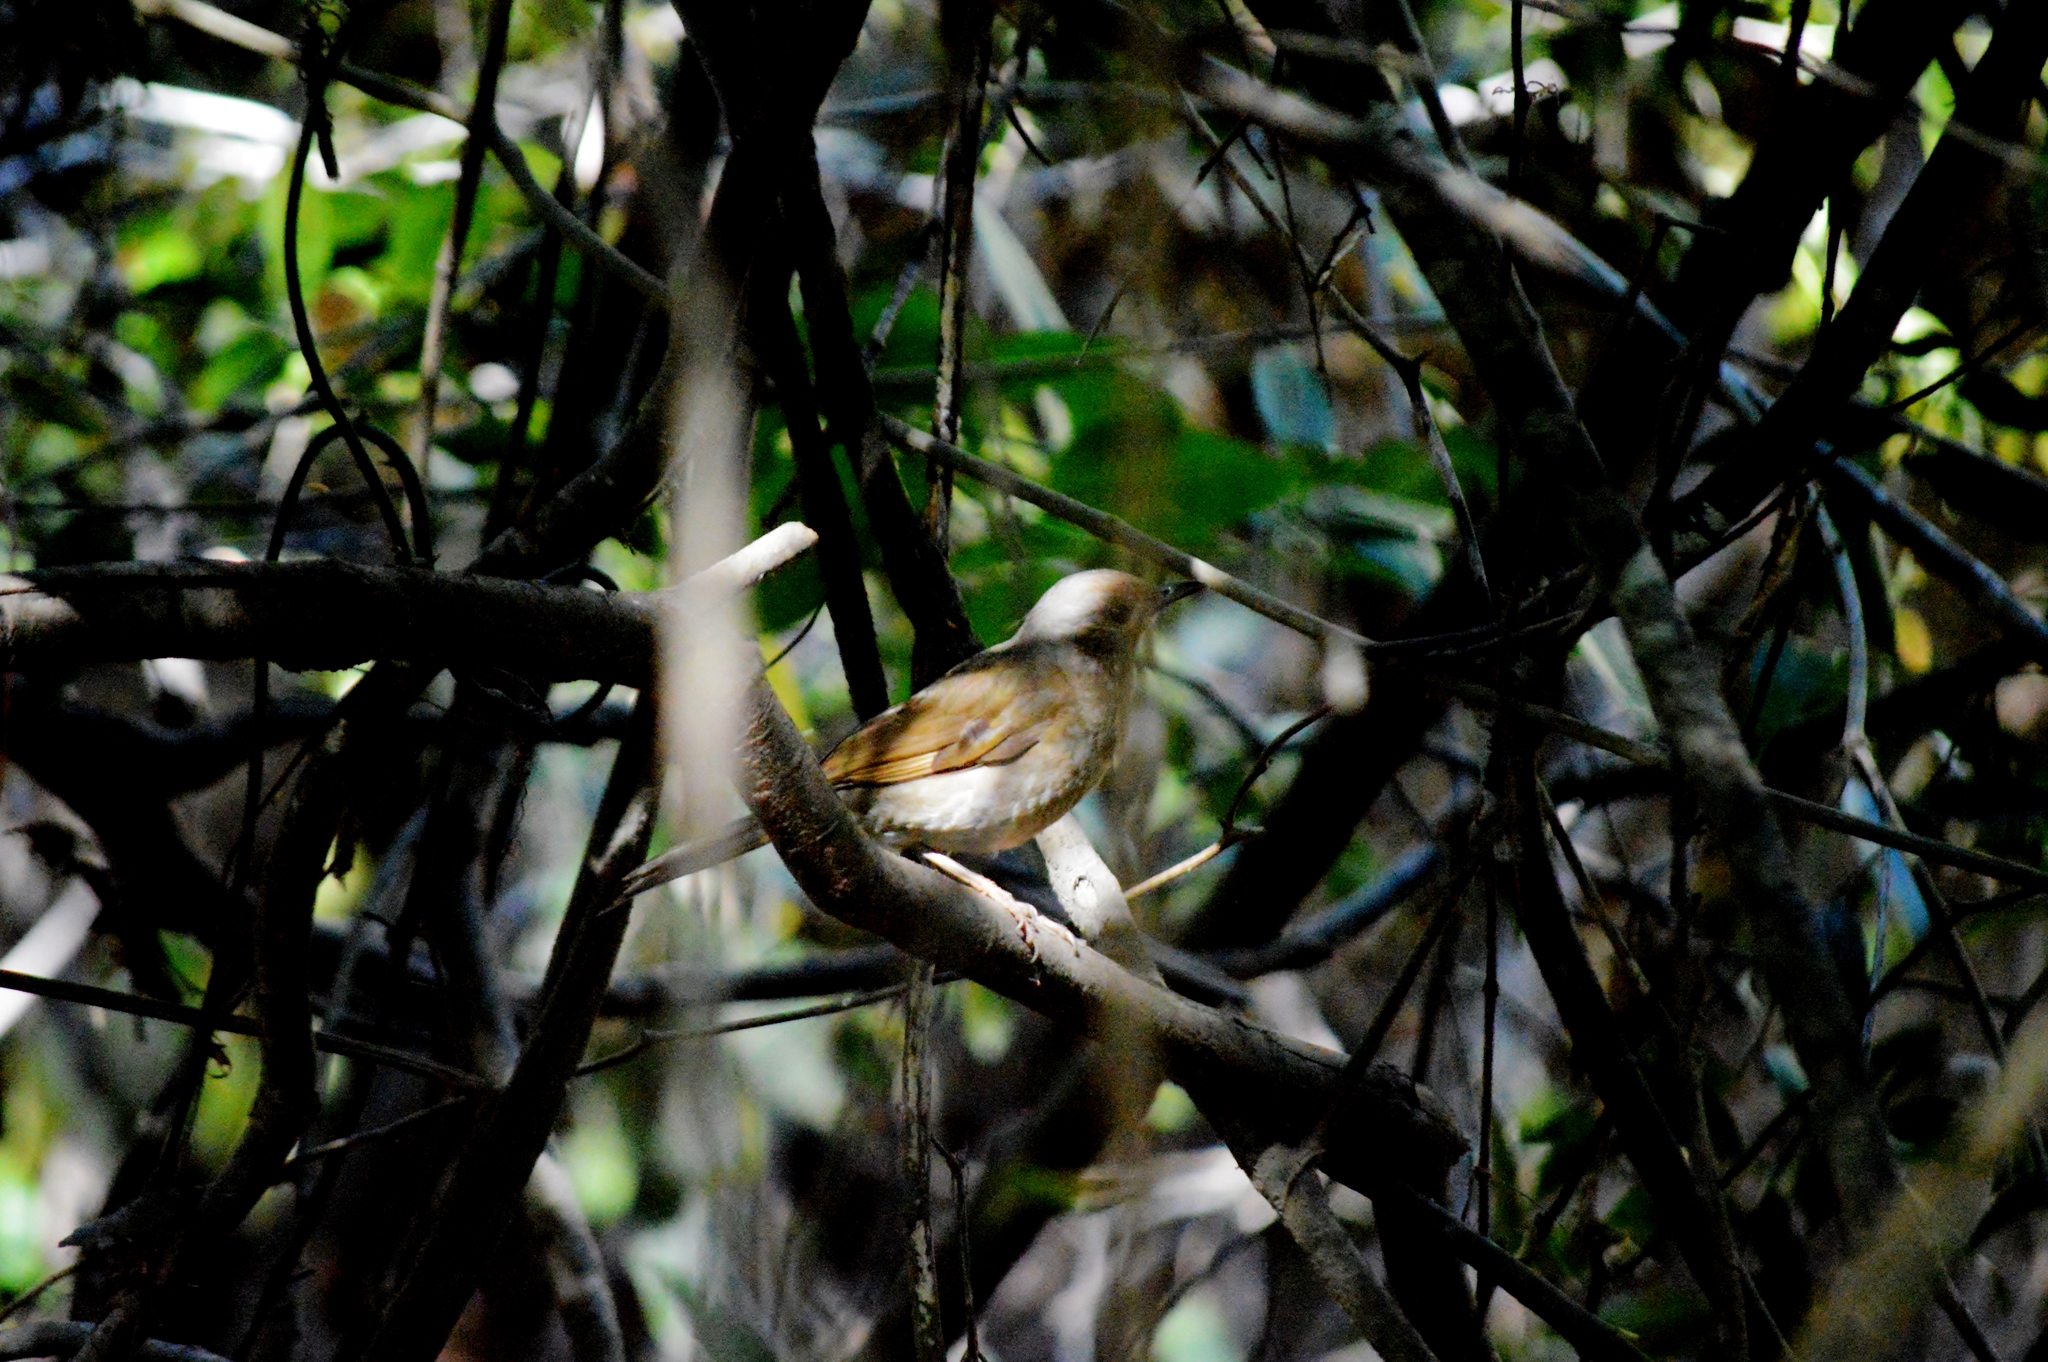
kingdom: Animalia
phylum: Chordata
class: Aves
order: Passeriformes
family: Turdidae
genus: Turdus
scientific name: Turdus leucomelas
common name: Pale-breasted thrush
